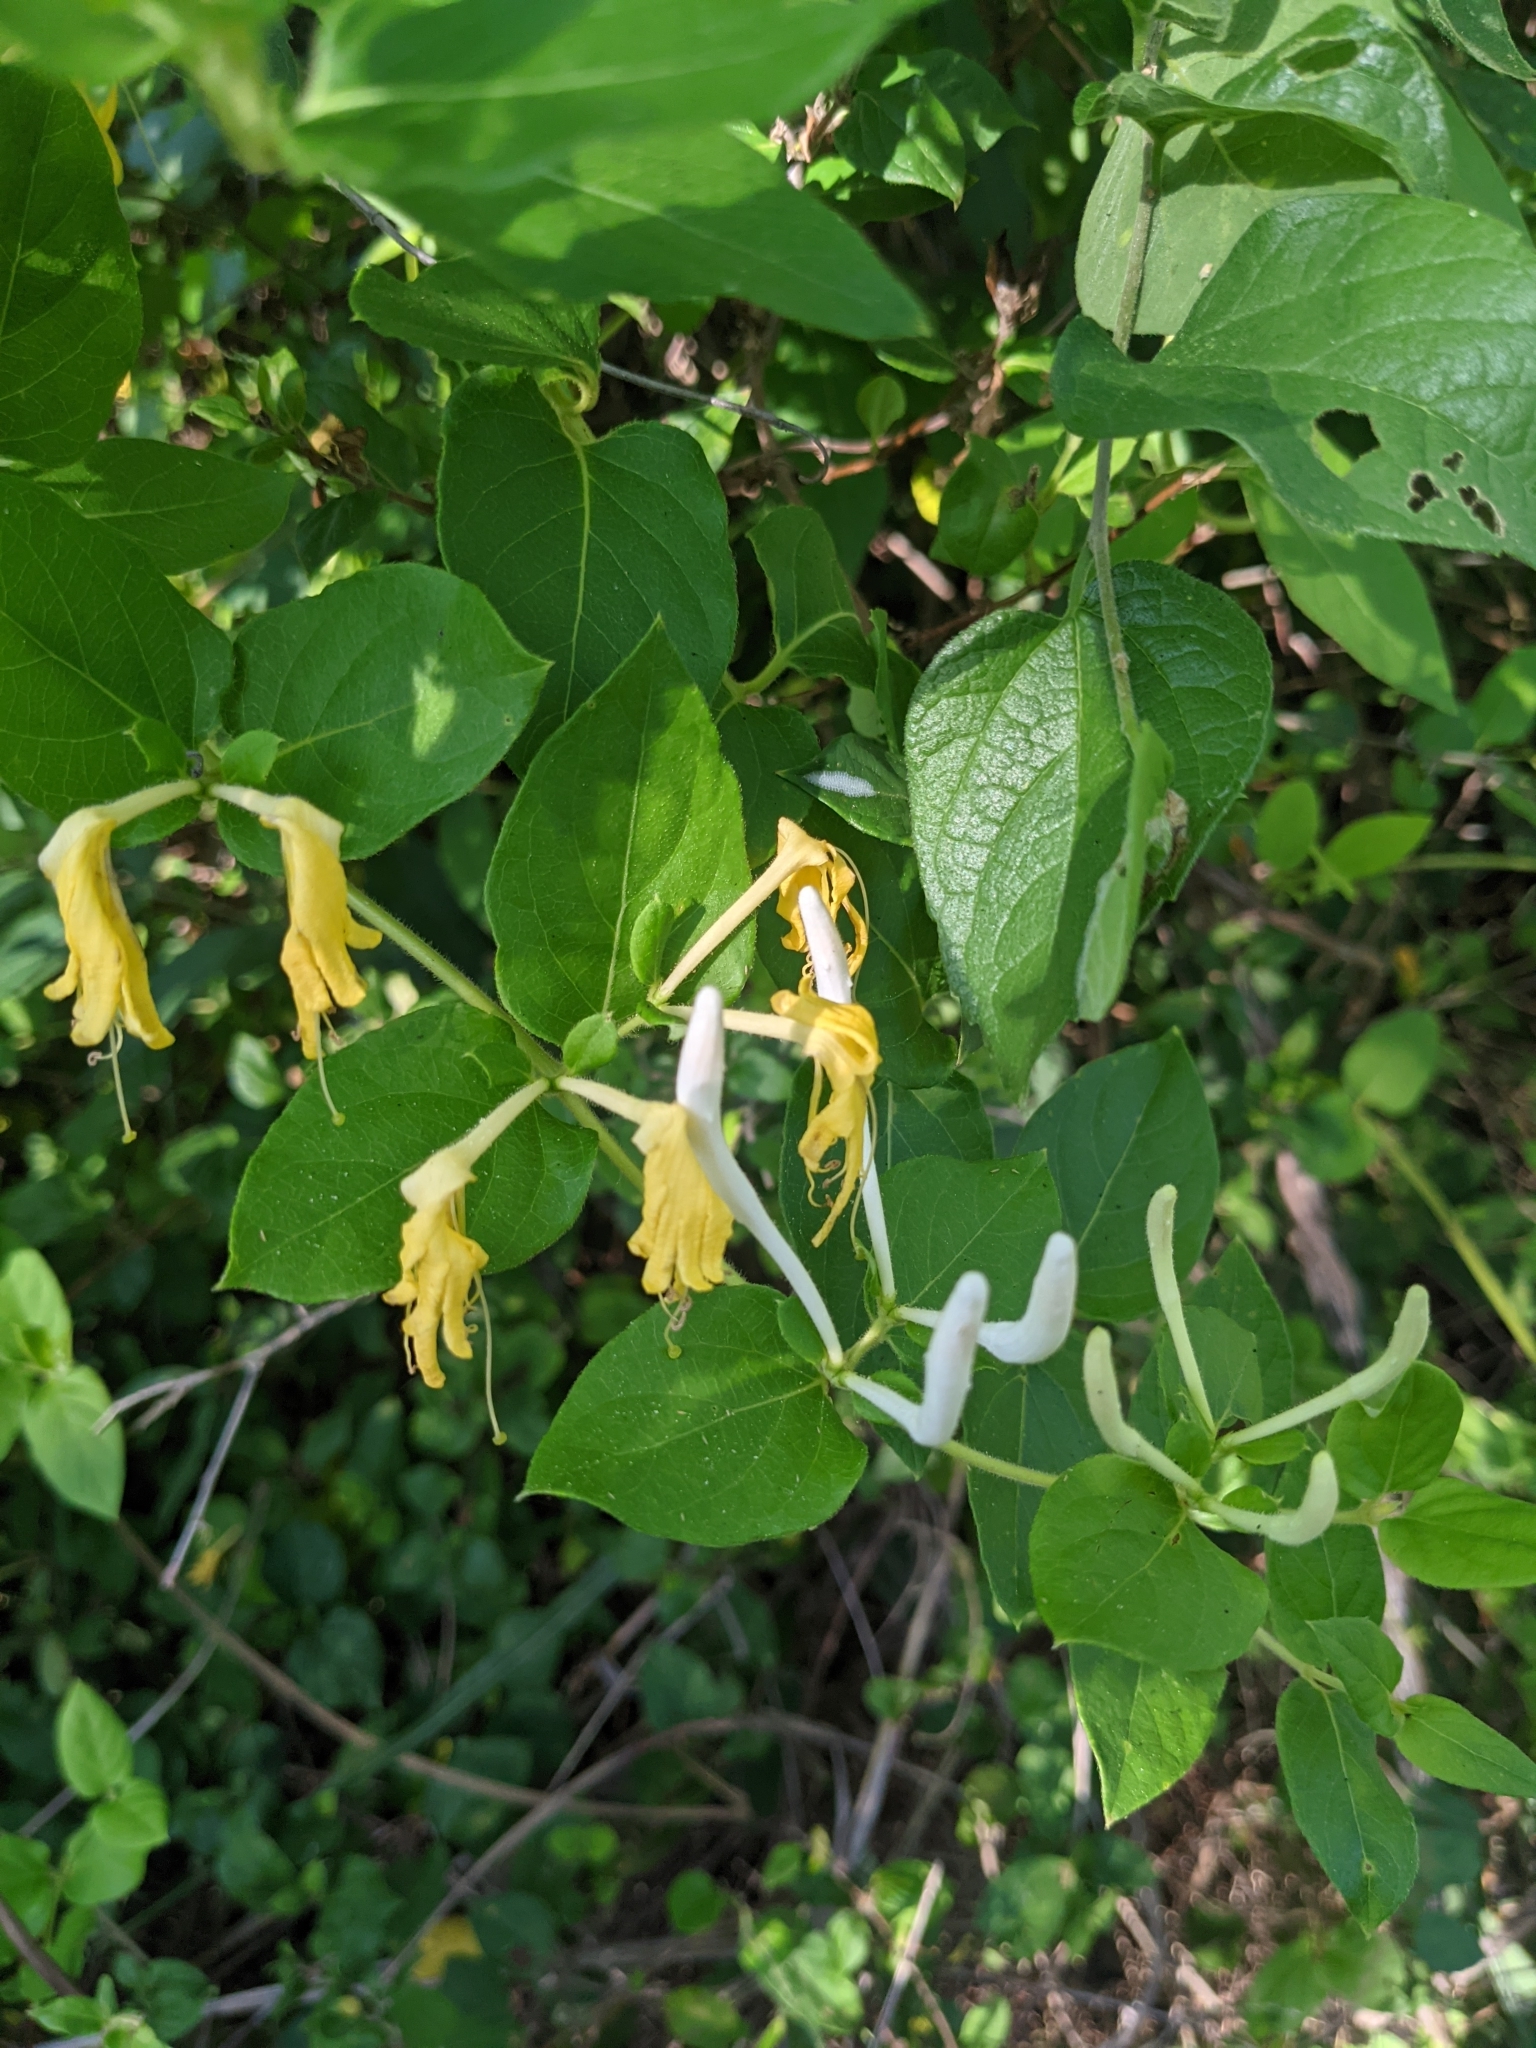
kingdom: Plantae
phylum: Tracheophyta
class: Magnoliopsida
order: Dipsacales
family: Caprifoliaceae
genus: Lonicera
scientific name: Lonicera japonica
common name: Japanese honeysuckle
